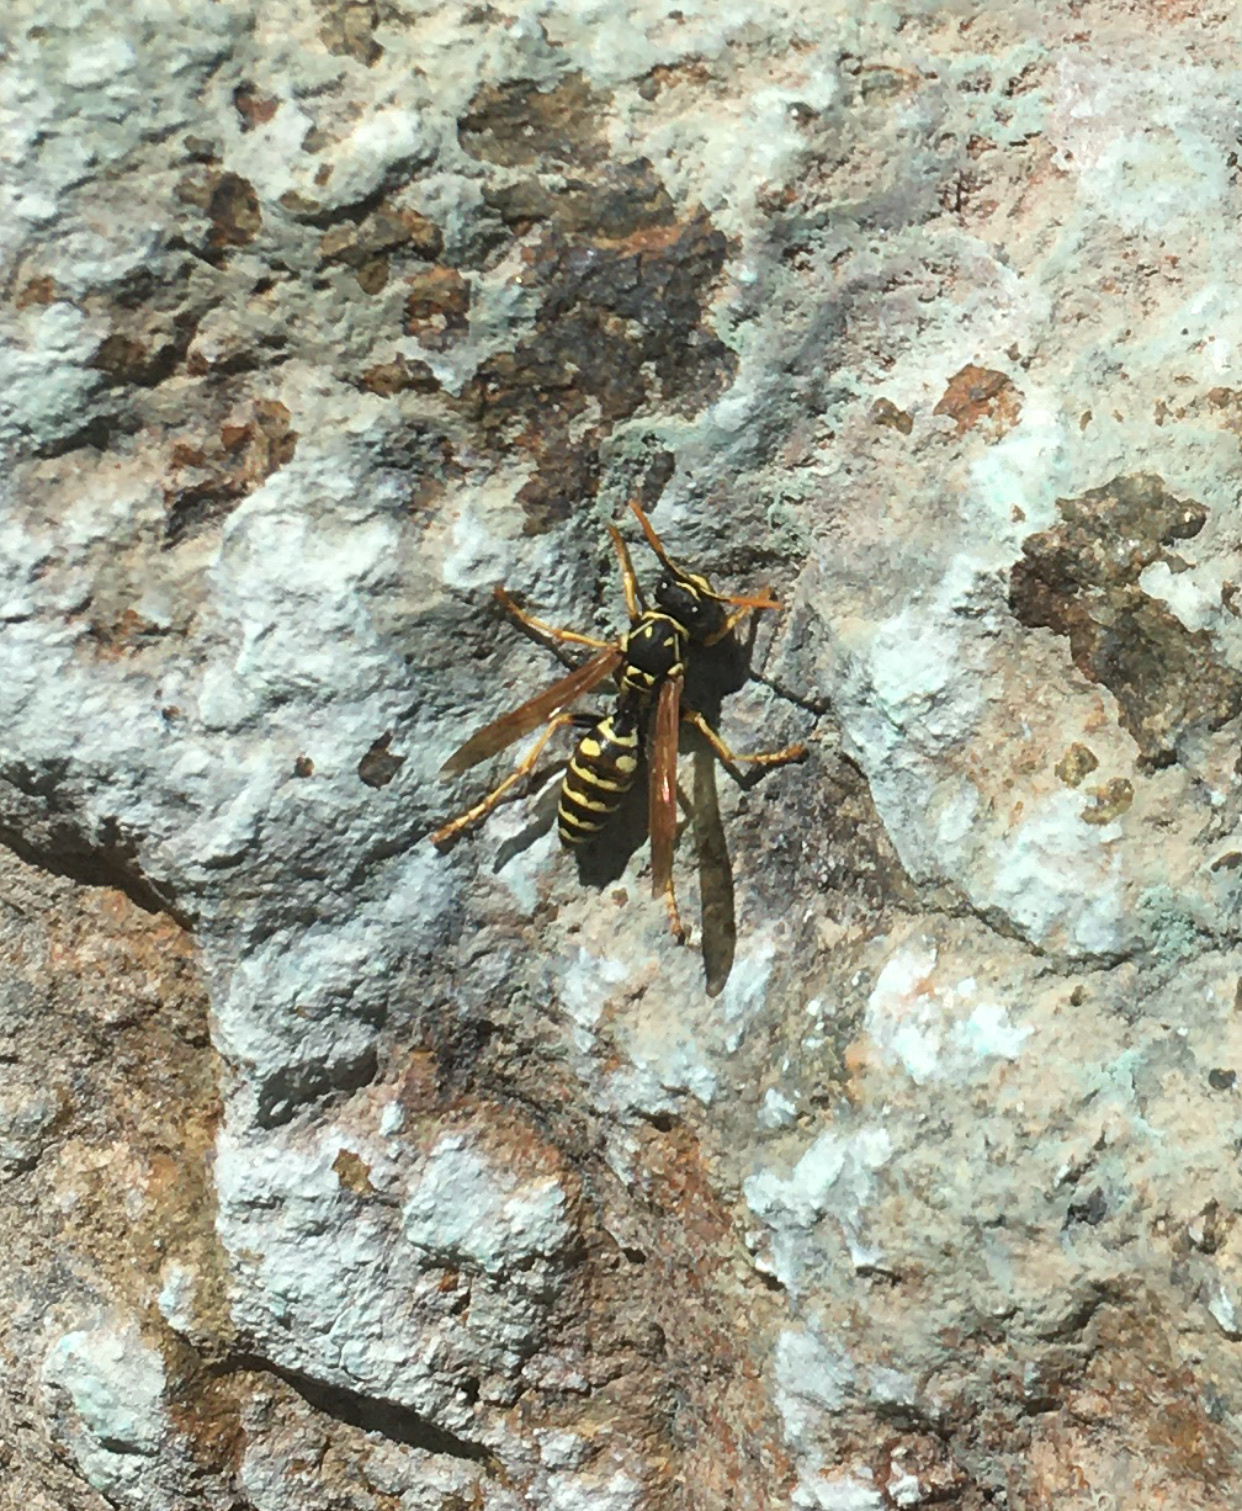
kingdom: Animalia
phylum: Arthropoda
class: Insecta
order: Hymenoptera
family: Eumenidae
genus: Polistes
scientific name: Polistes dominula
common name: Paper wasp
